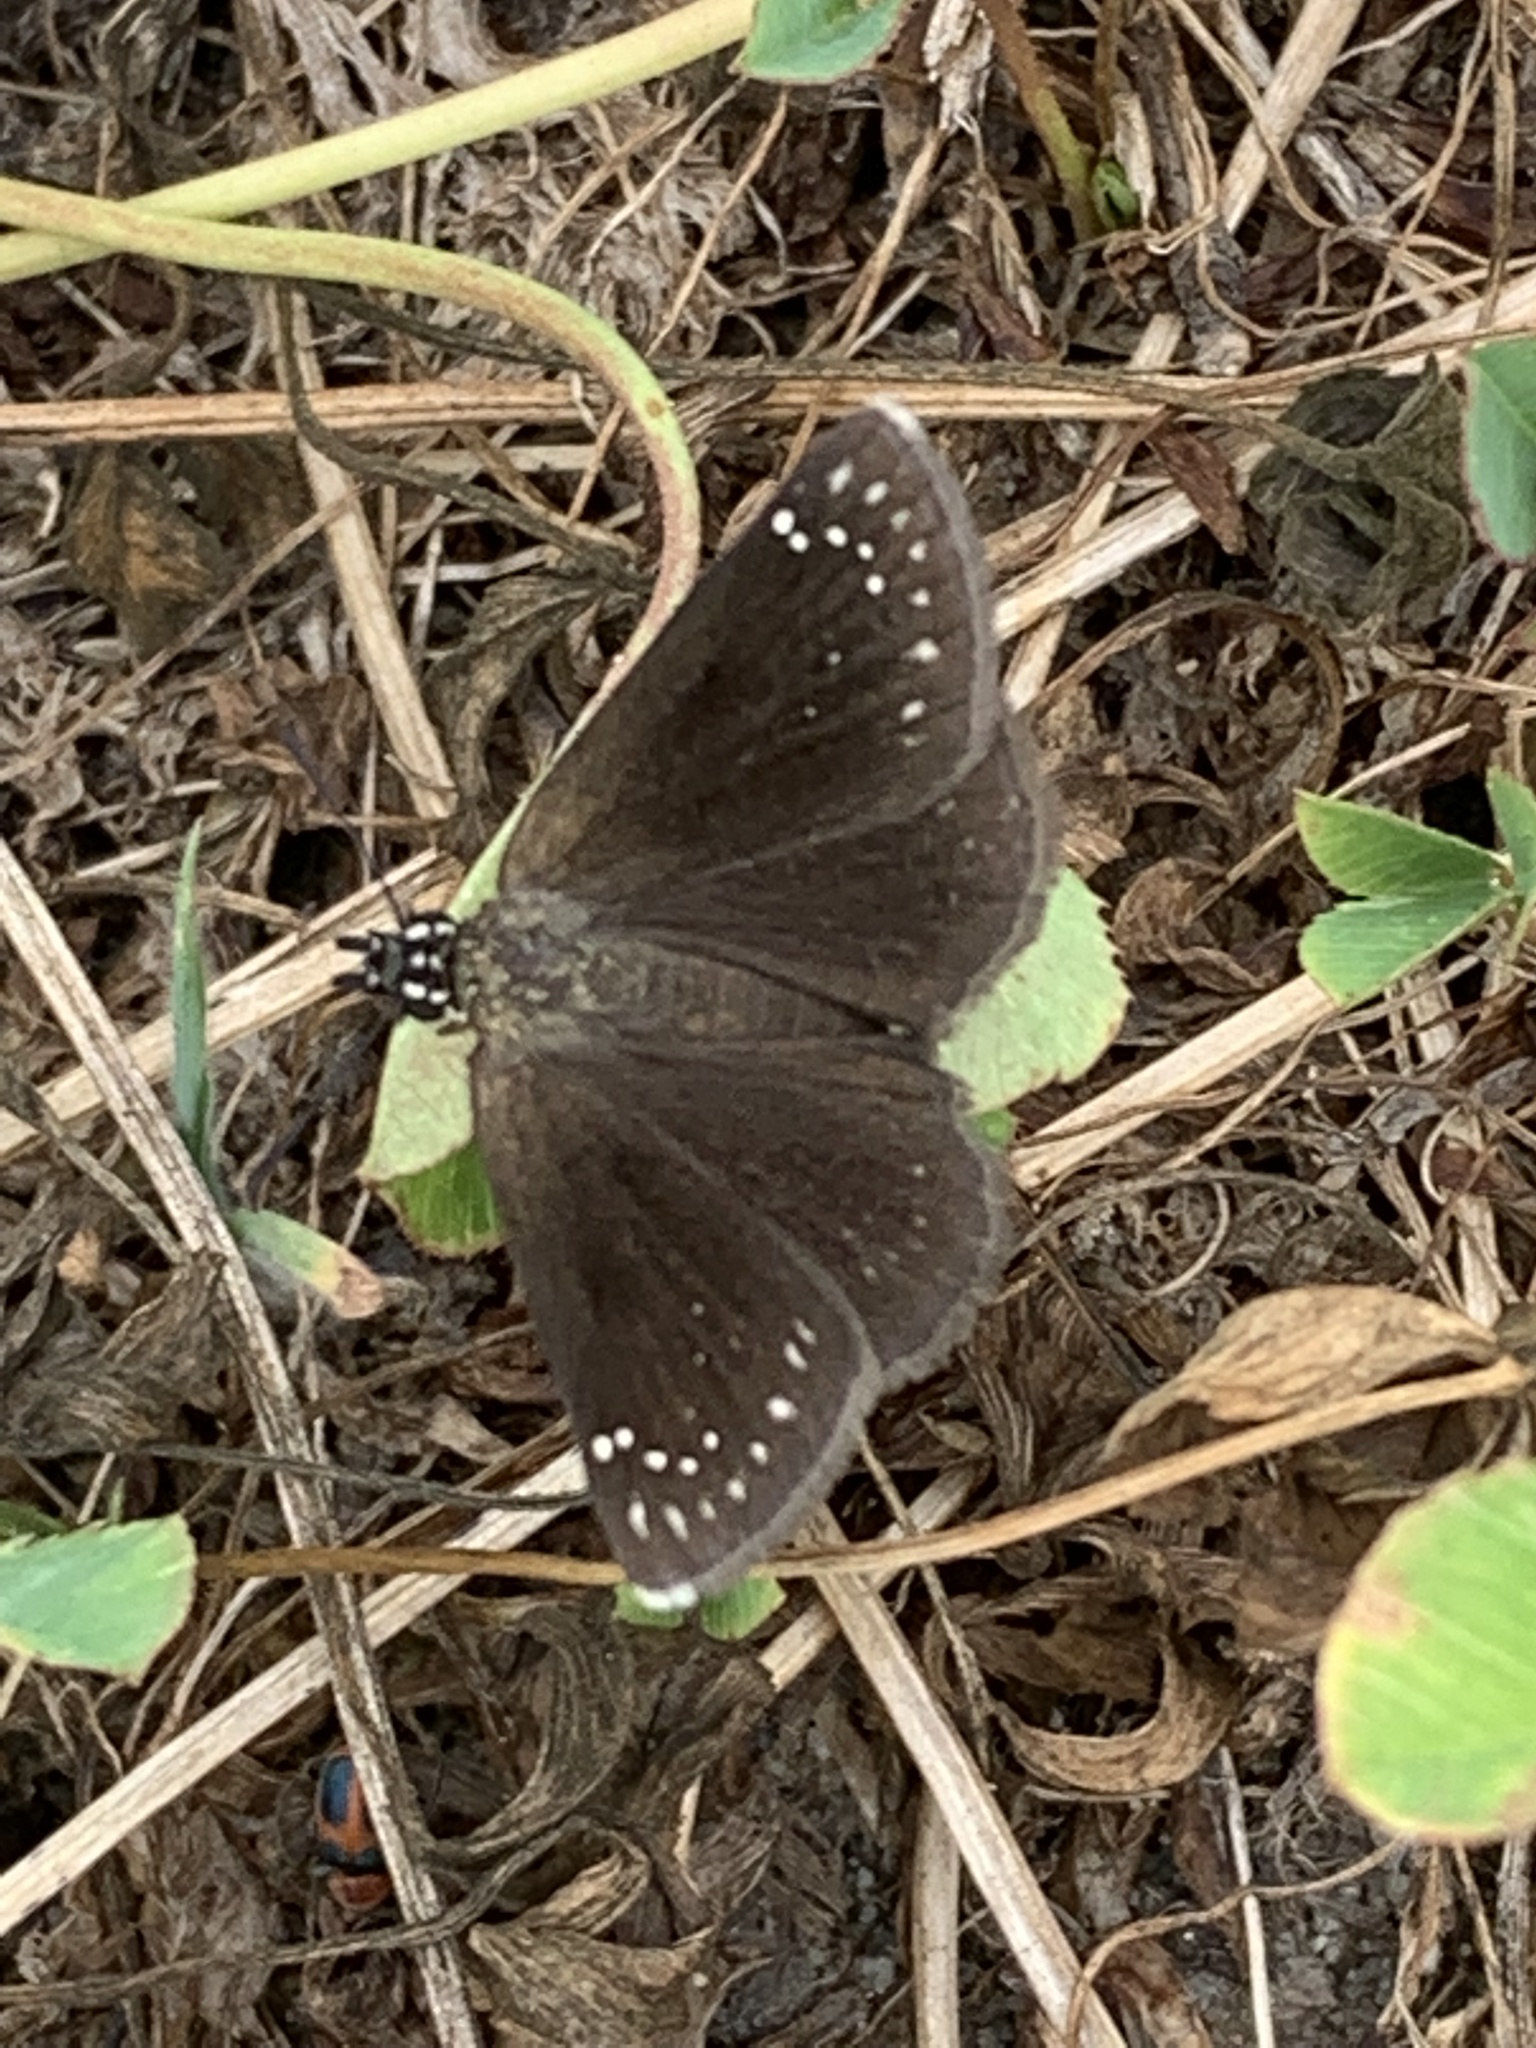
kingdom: Animalia
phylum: Arthropoda
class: Insecta
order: Lepidoptera
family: Hesperiidae
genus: Pholisora
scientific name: Pholisora catullus
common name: Common sootywing
